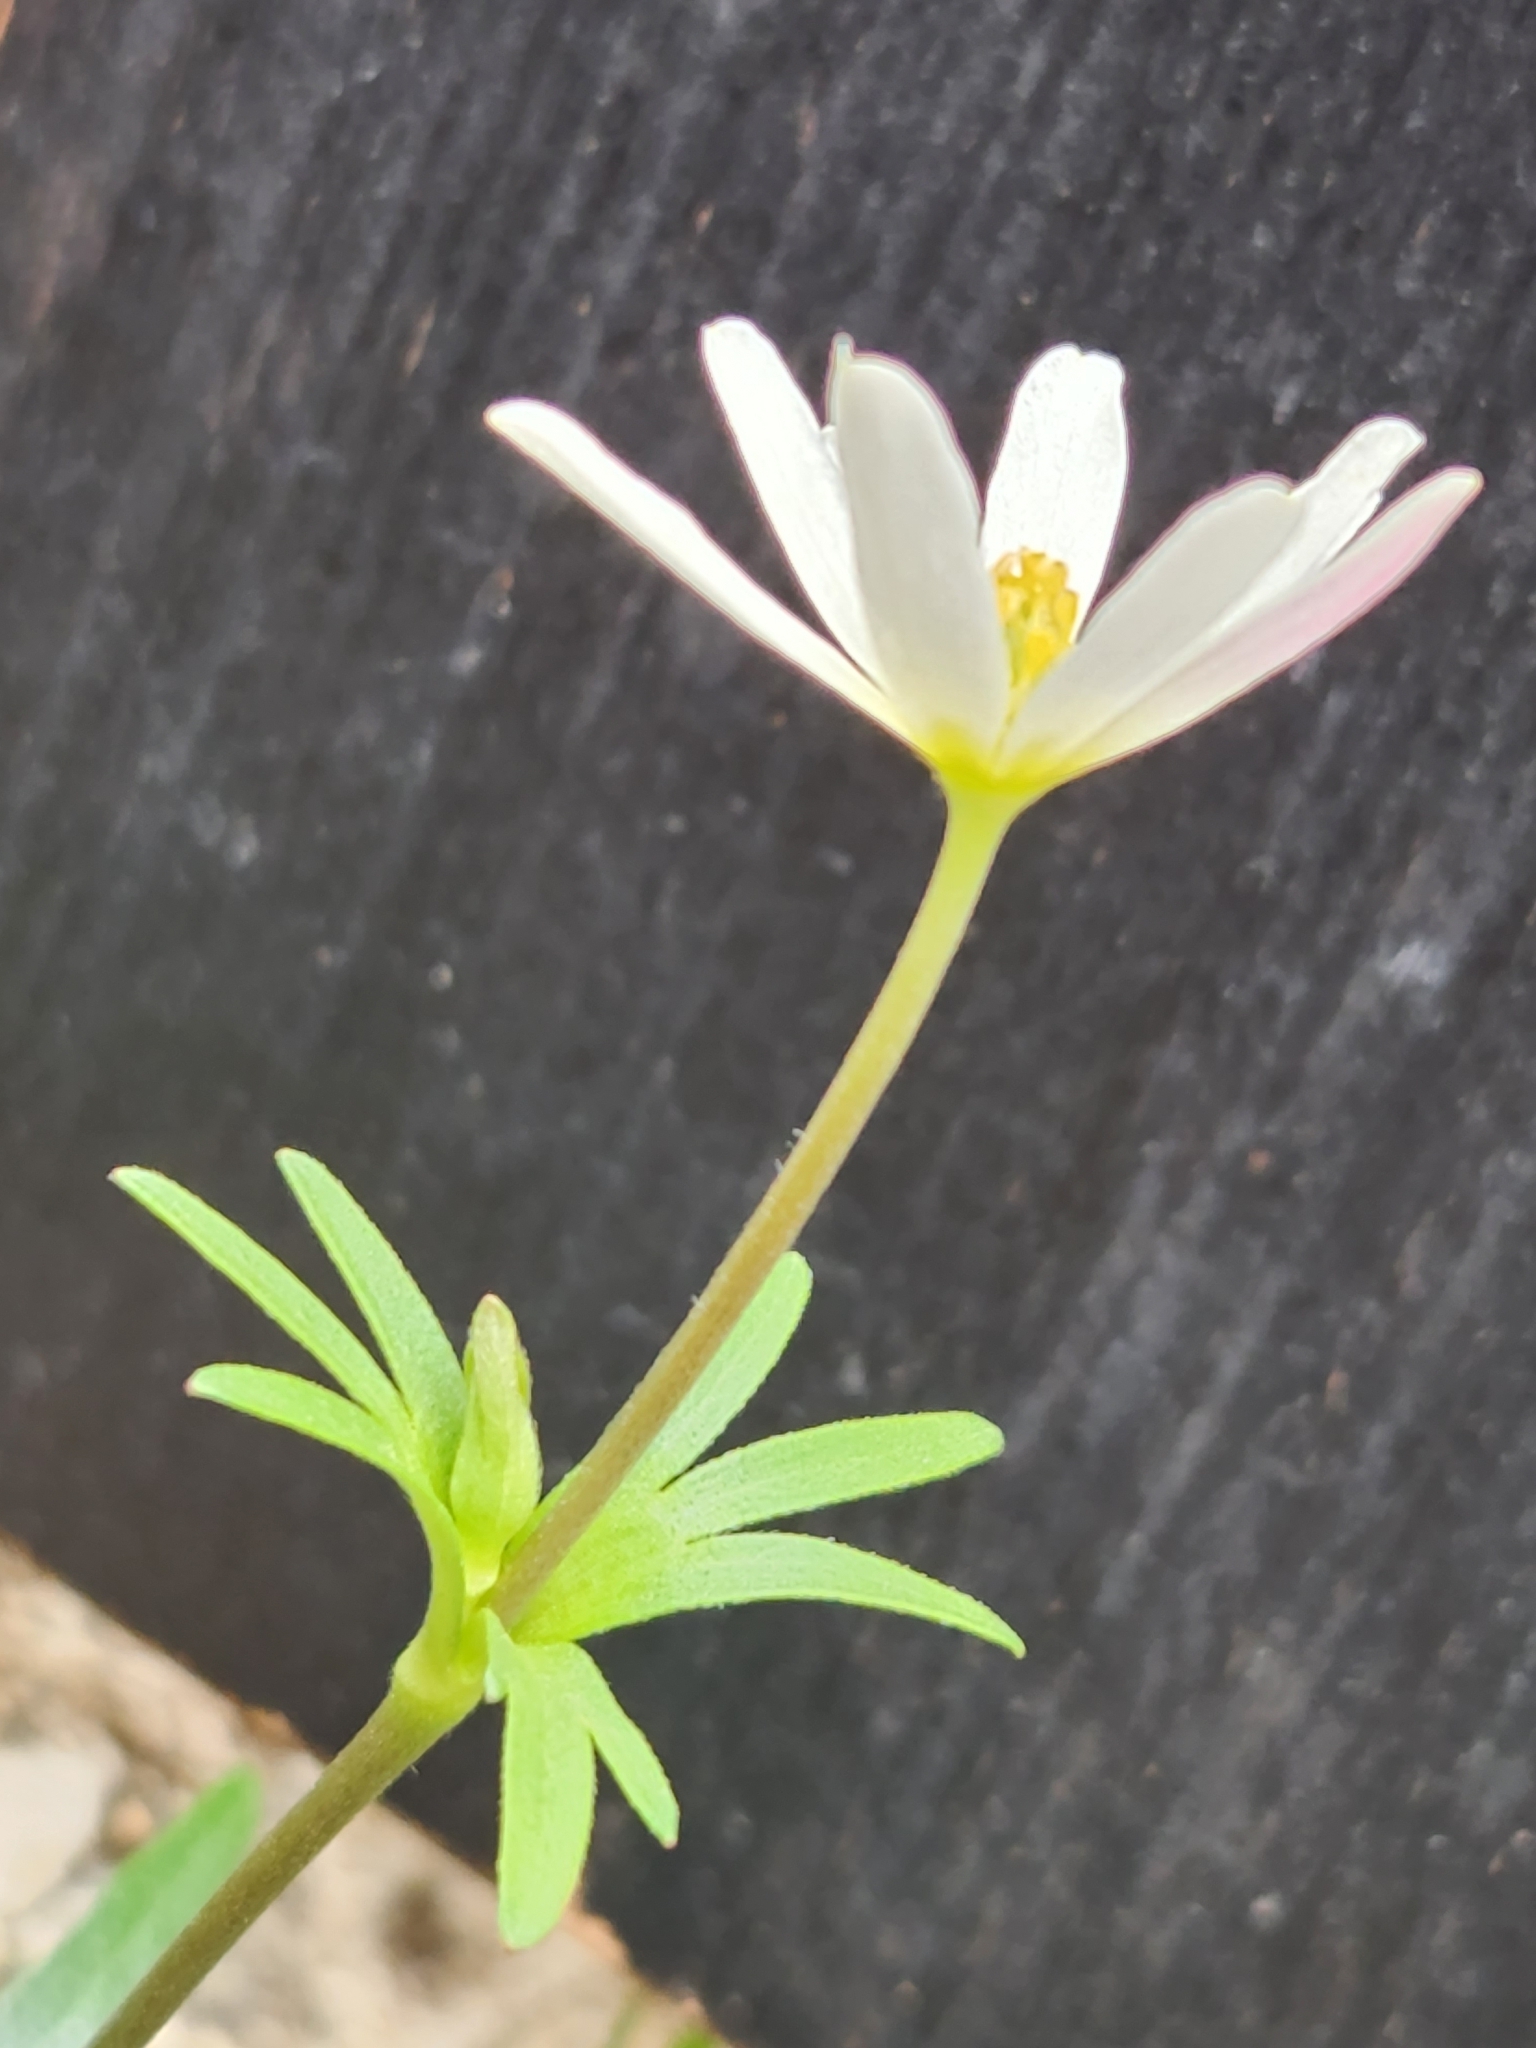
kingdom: Plantae
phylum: Tracheophyta
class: Magnoliopsida
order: Ranunculales
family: Ranunculaceae
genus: Anemone
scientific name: Anemone edwardsiana
